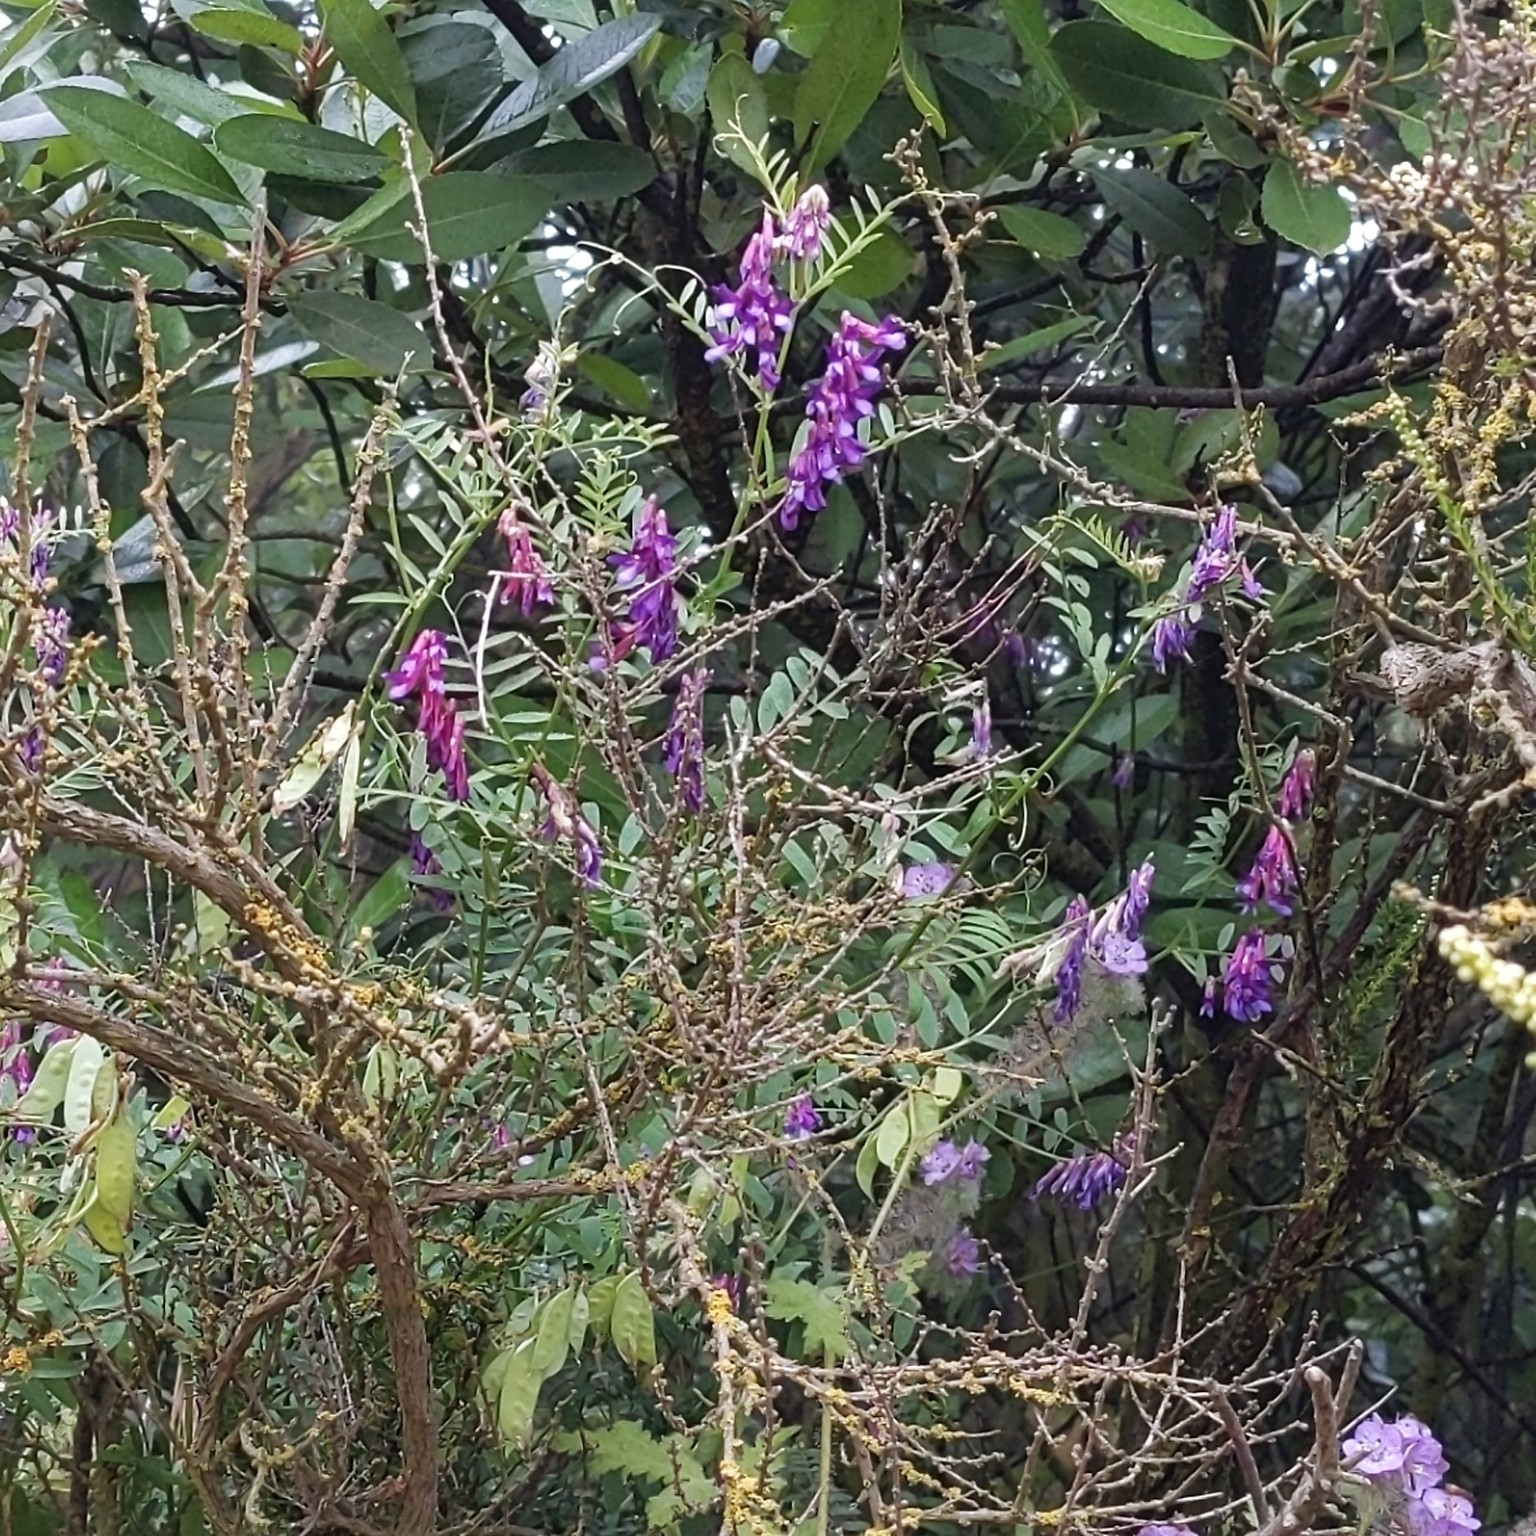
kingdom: Plantae
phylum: Tracheophyta
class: Magnoliopsida
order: Fabales
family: Fabaceae
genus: Vicia
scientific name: Vicia villosa
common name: Fodder vetch
